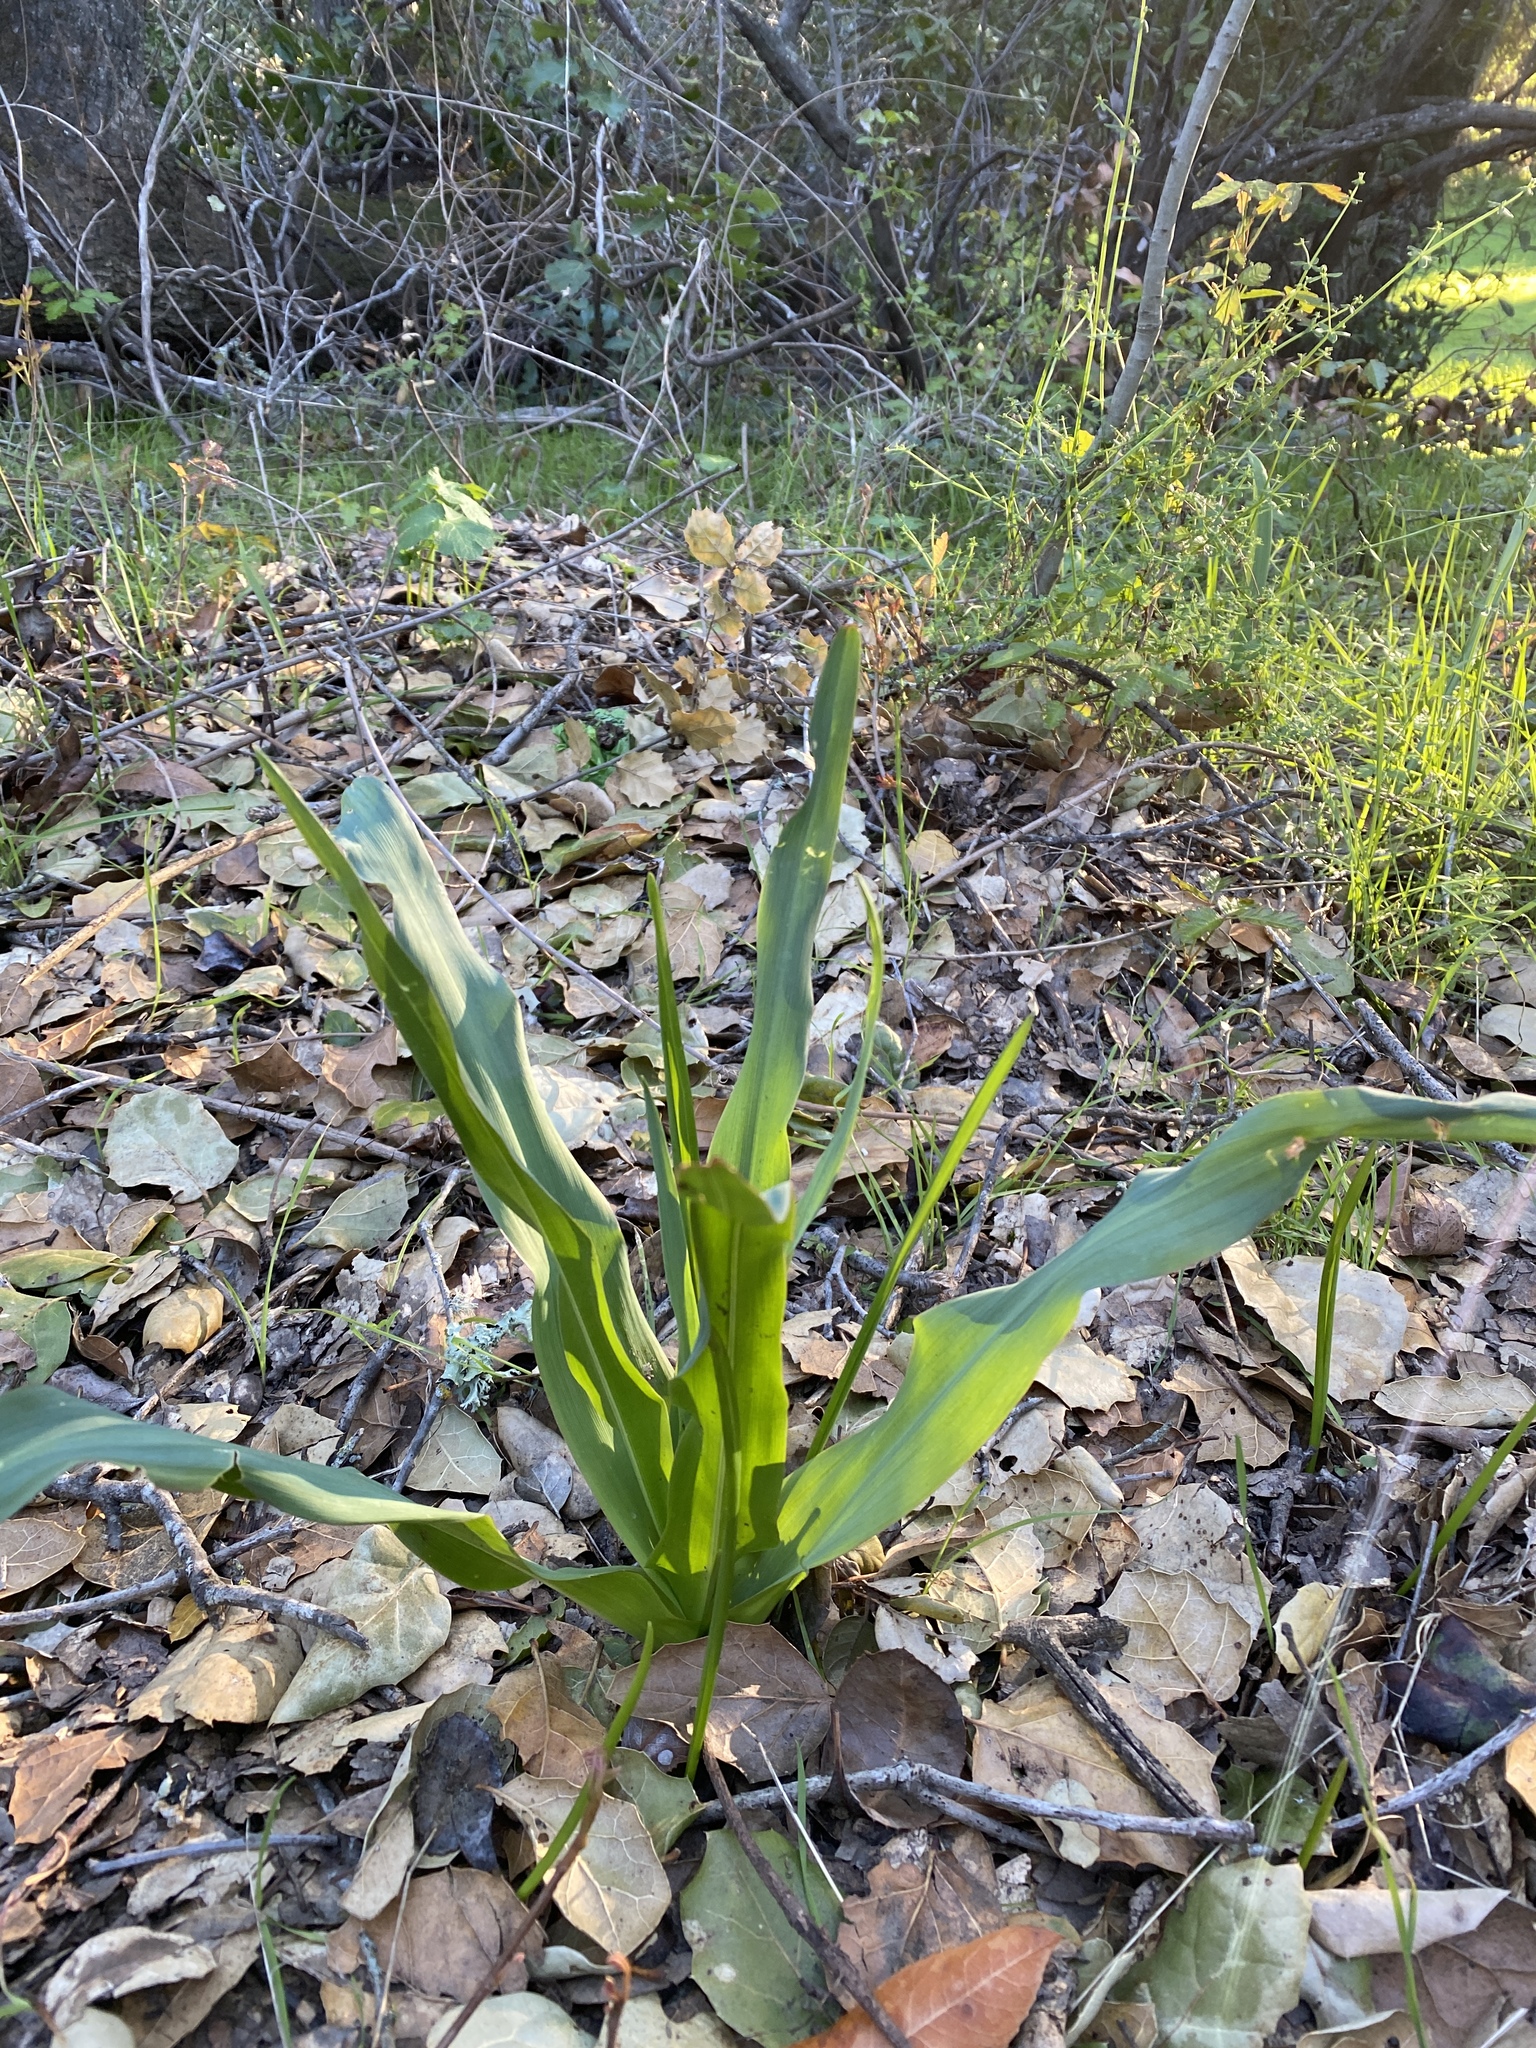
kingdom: Plantae
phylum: Tracheophyta
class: Liliopsida
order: Asparagales
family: Asparagaceae
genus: Chlorogalum
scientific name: Chlorogalum pomeridianum
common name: Amole
